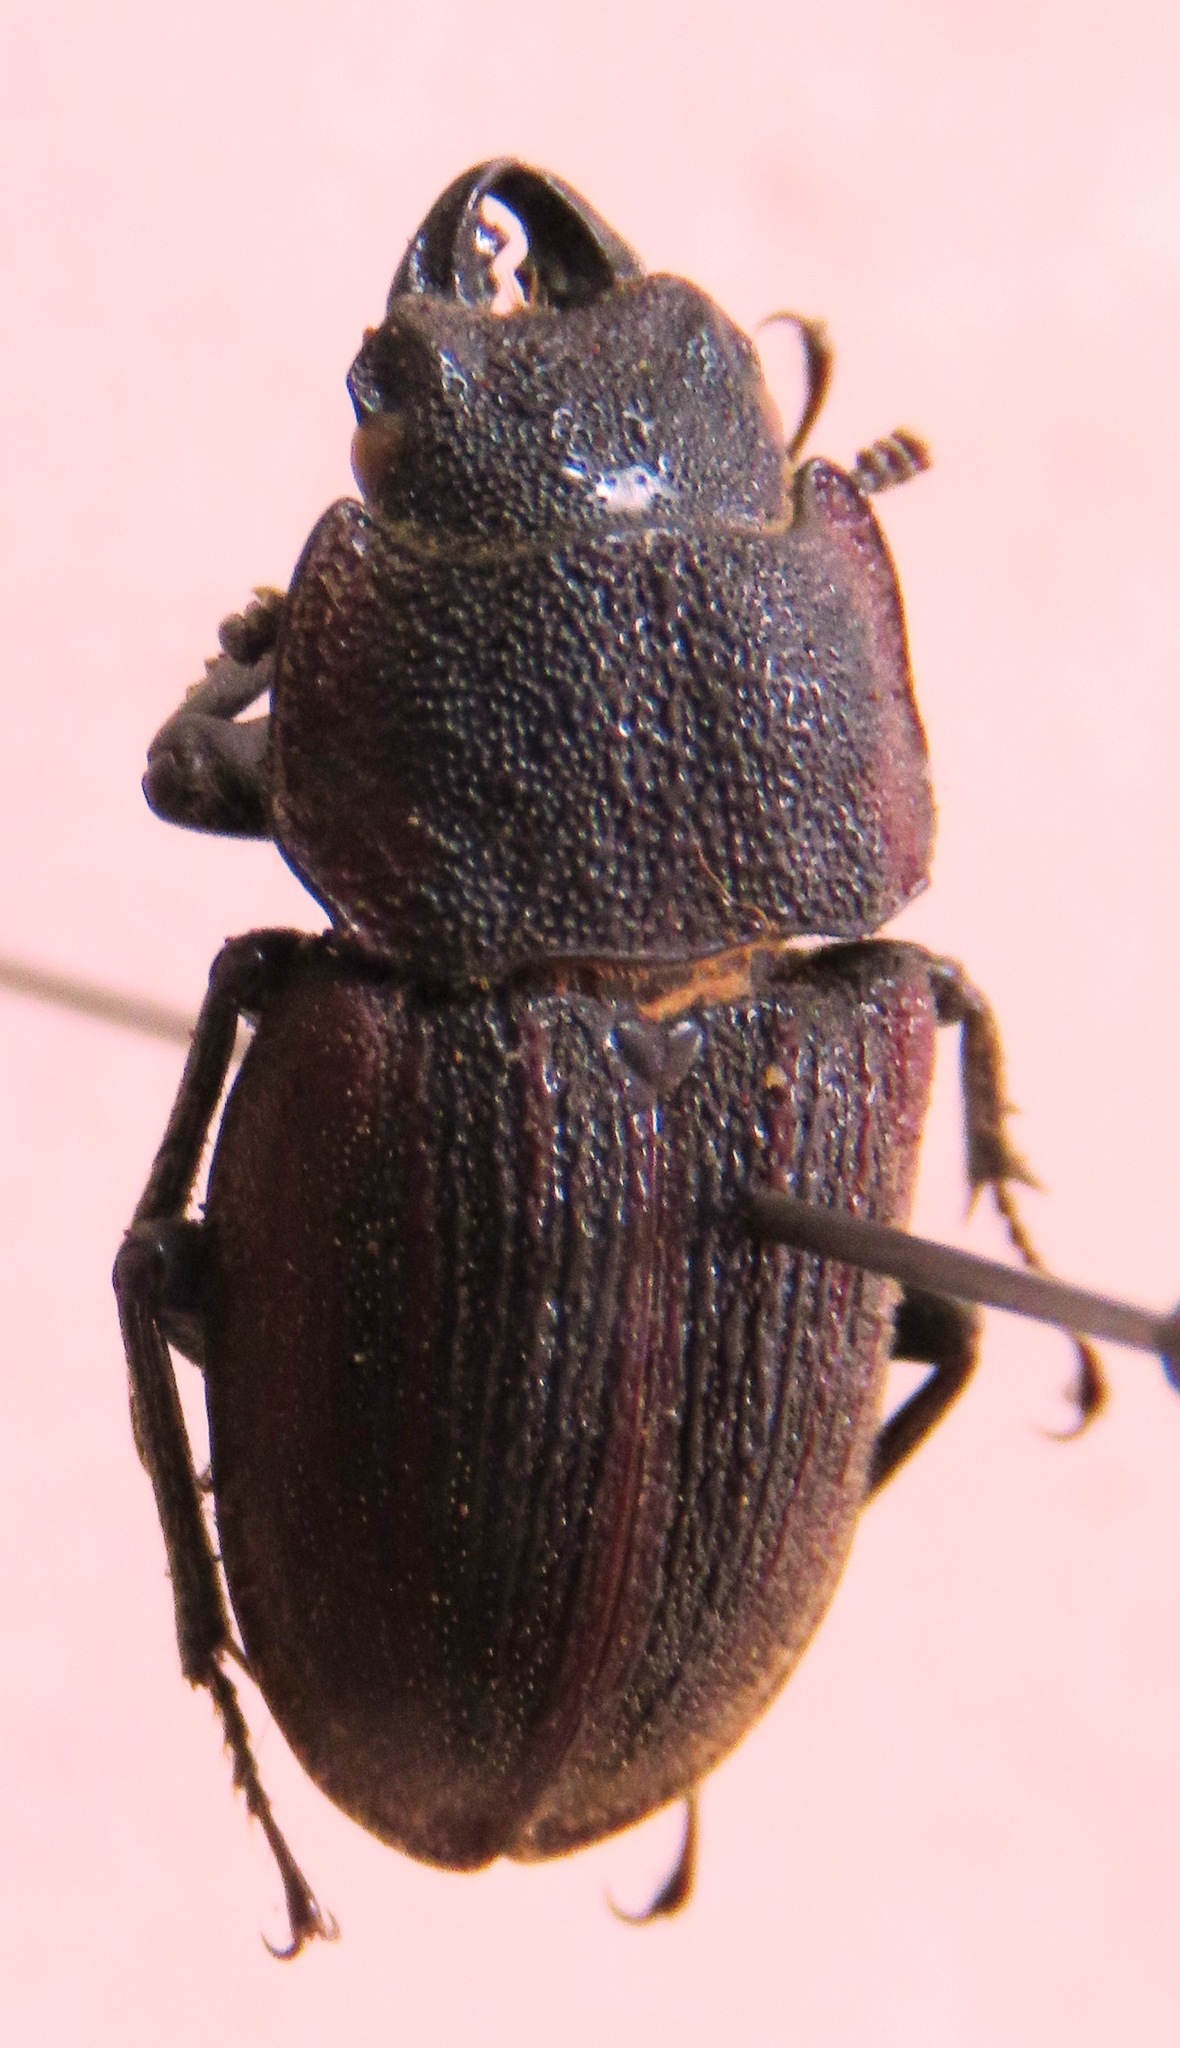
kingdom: Animalia
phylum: Arthropoda
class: Insecta
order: Coleoptera
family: Lucanidae
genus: Aegognathus
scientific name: Aegognathus leuthneri
